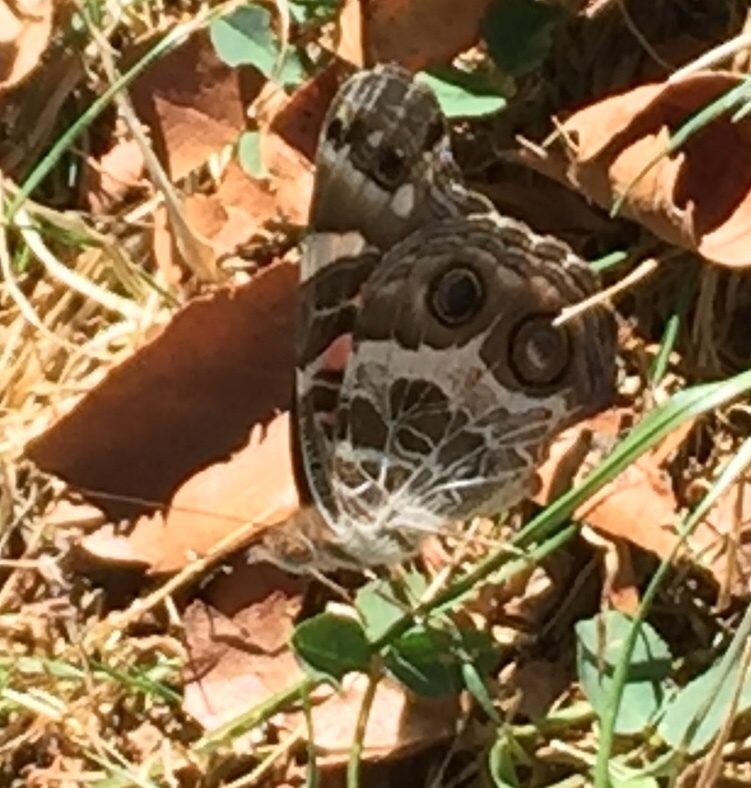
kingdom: Animalia
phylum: Arthropoda
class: Insecta
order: Lepidoptera
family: Nymphalidae
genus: Vanessa
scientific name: Vanessa virginiensis
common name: American lady
